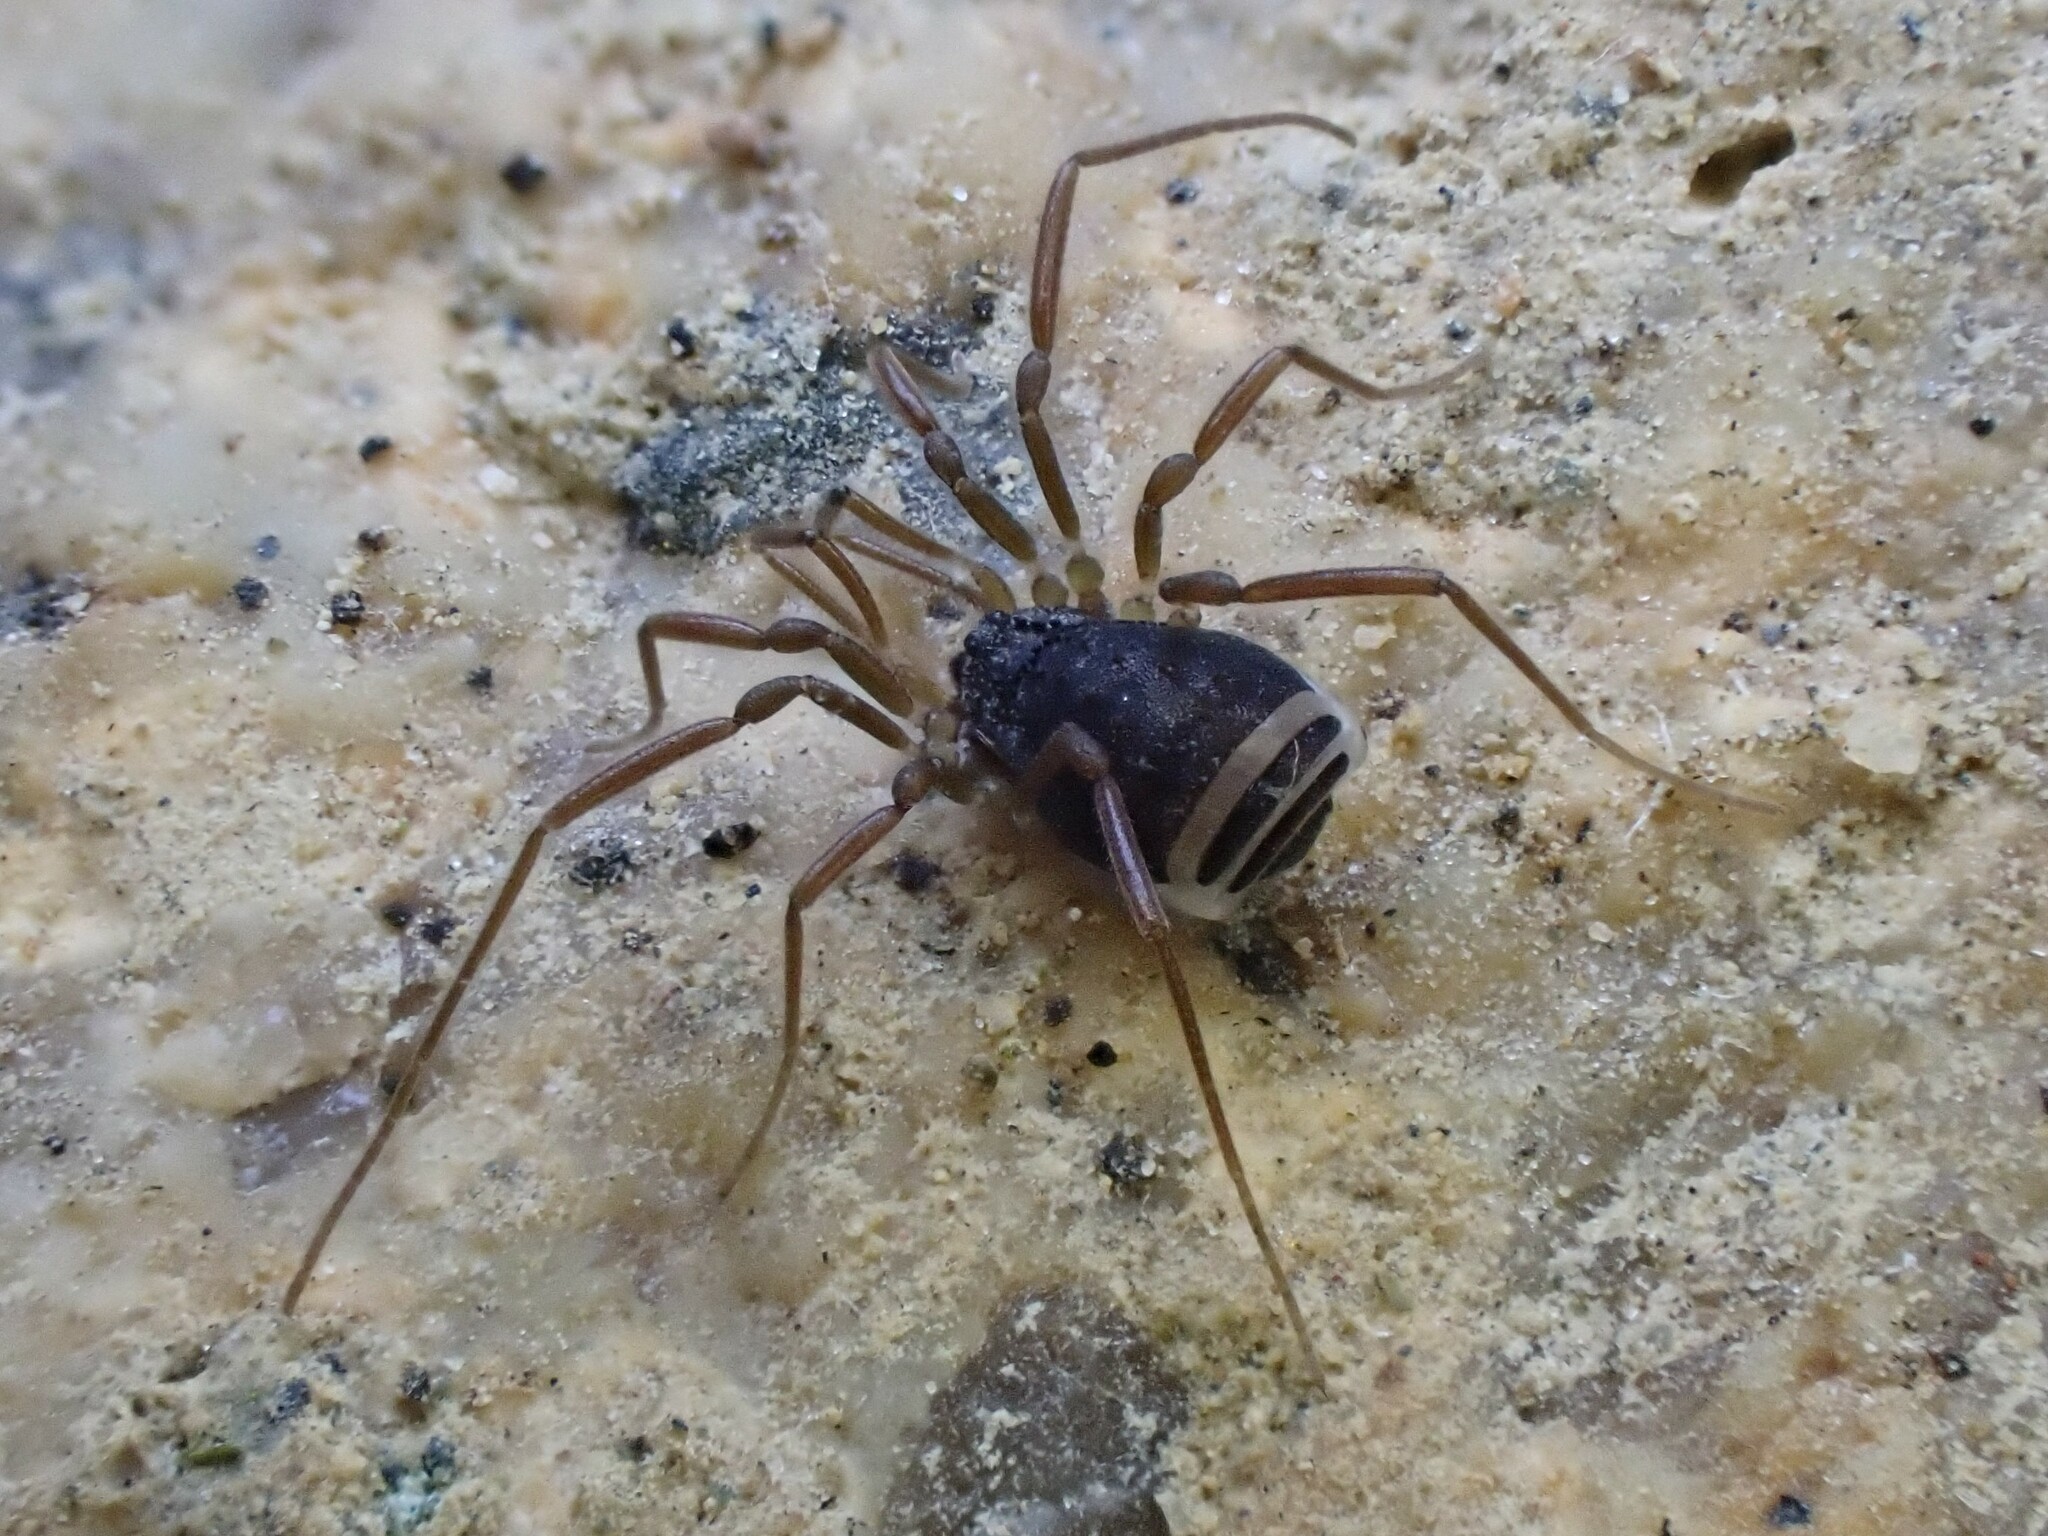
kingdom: Animalia
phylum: Arthropoda
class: Arachnida
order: Opiliones
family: Taracidae
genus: Hesperonemastoma
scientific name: Hesperonemastoma modestum
